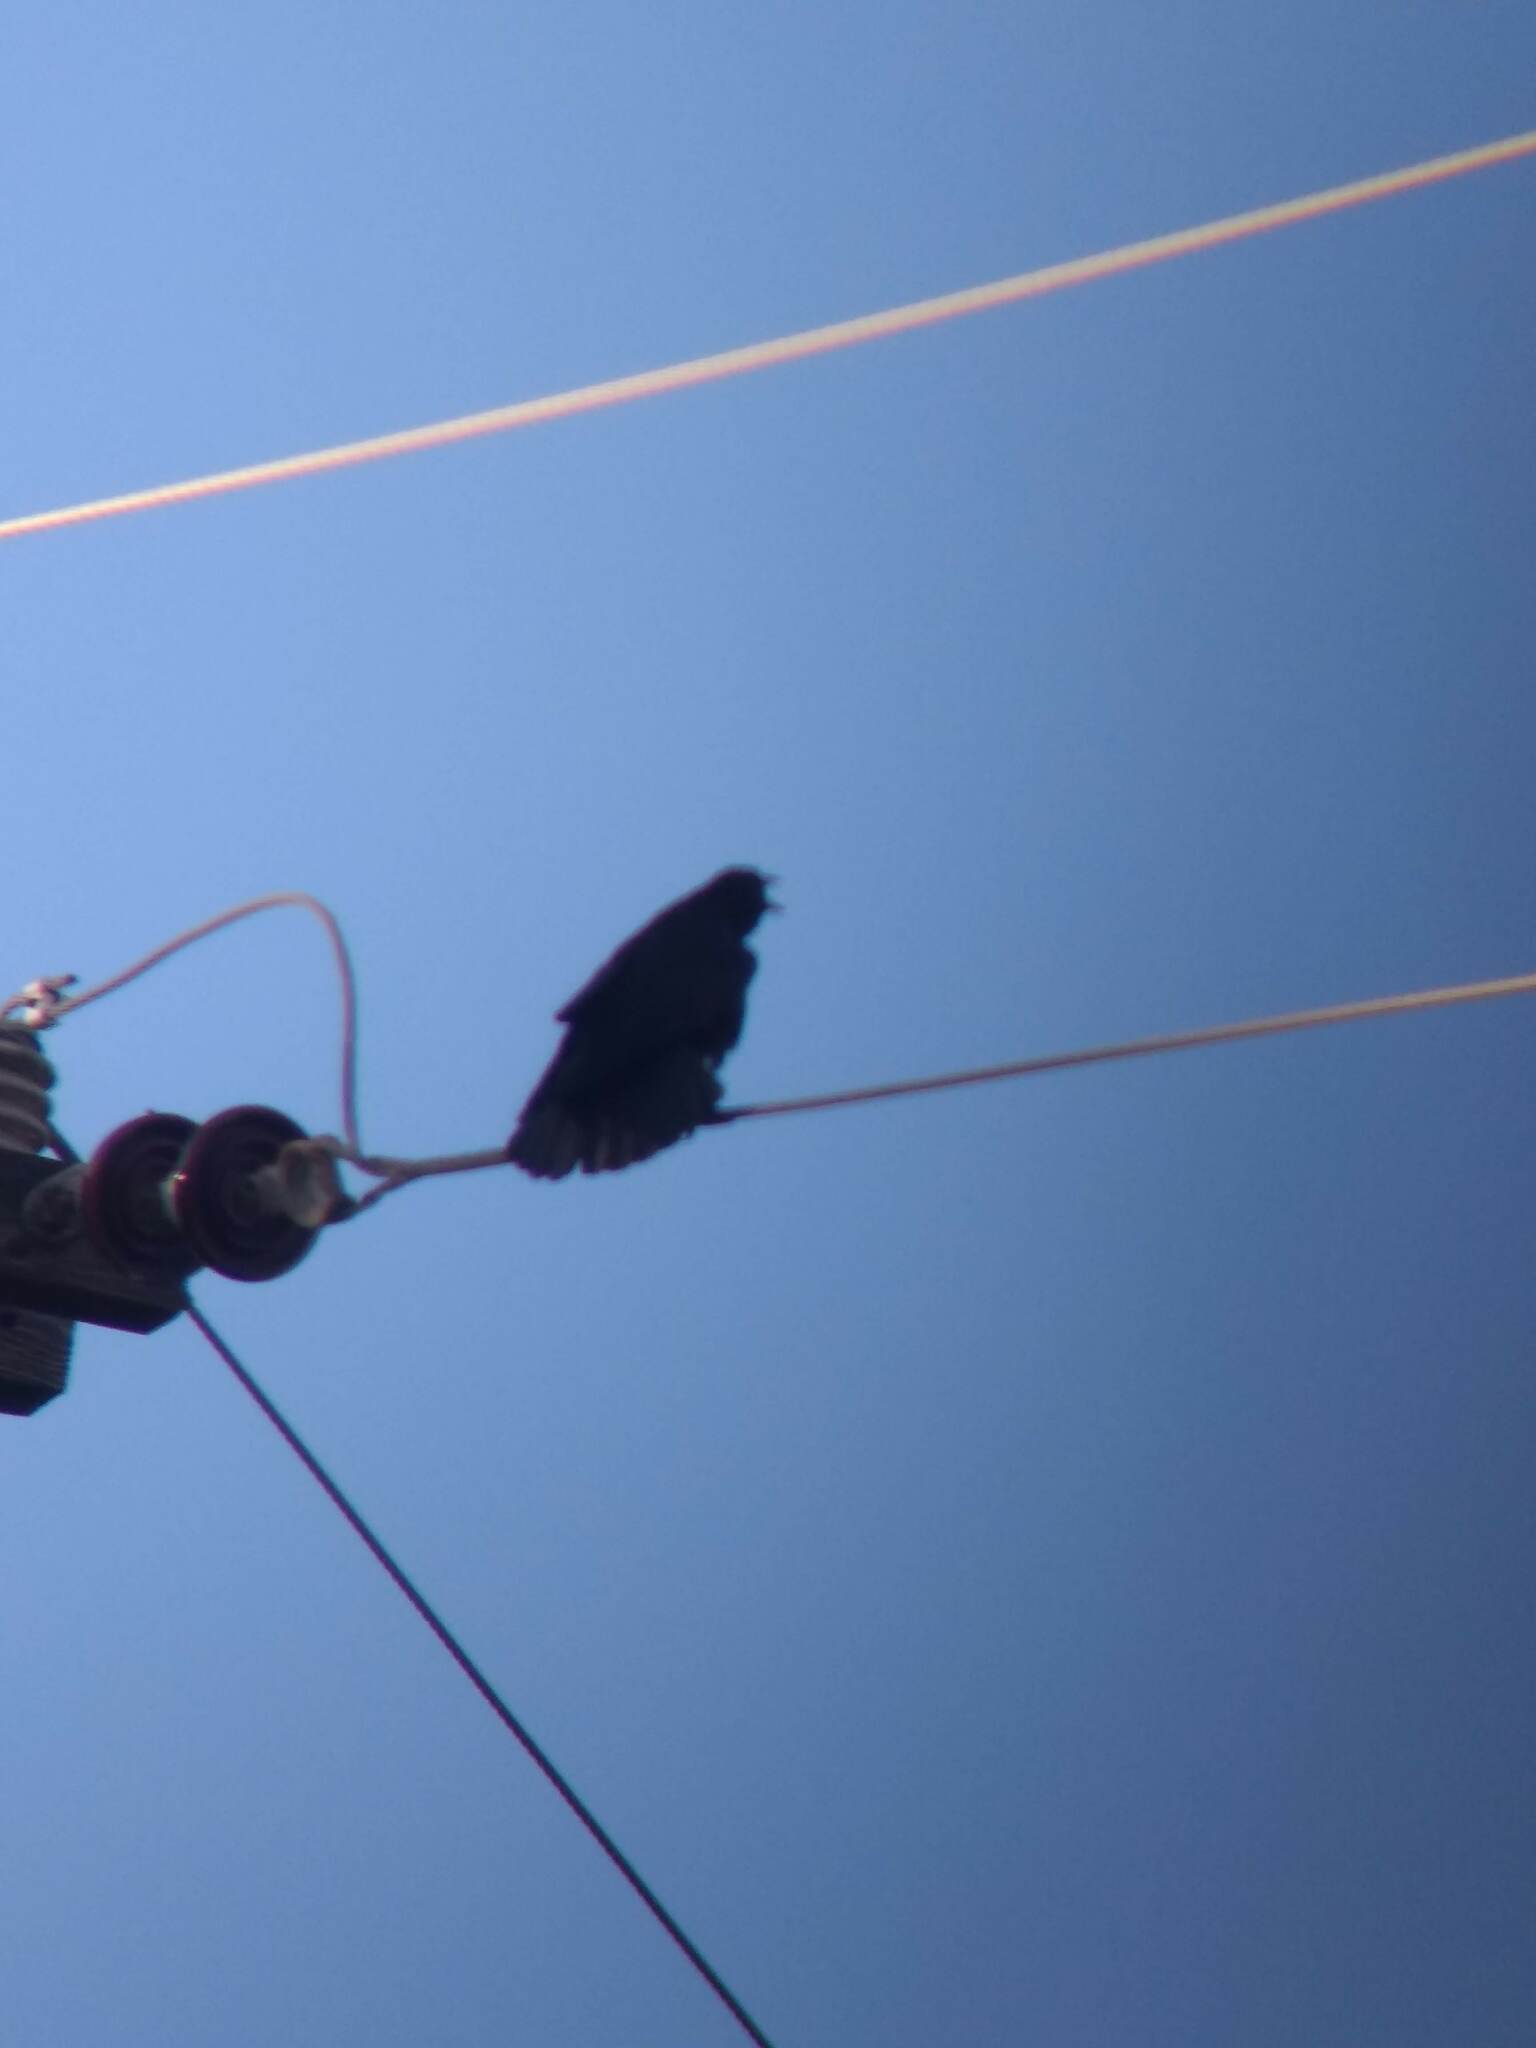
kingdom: Animalia
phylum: Chordata
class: Aves
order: Passeriformes
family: Corvidae
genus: Corvus
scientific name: Corvus brachyrhynchos
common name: American crow
